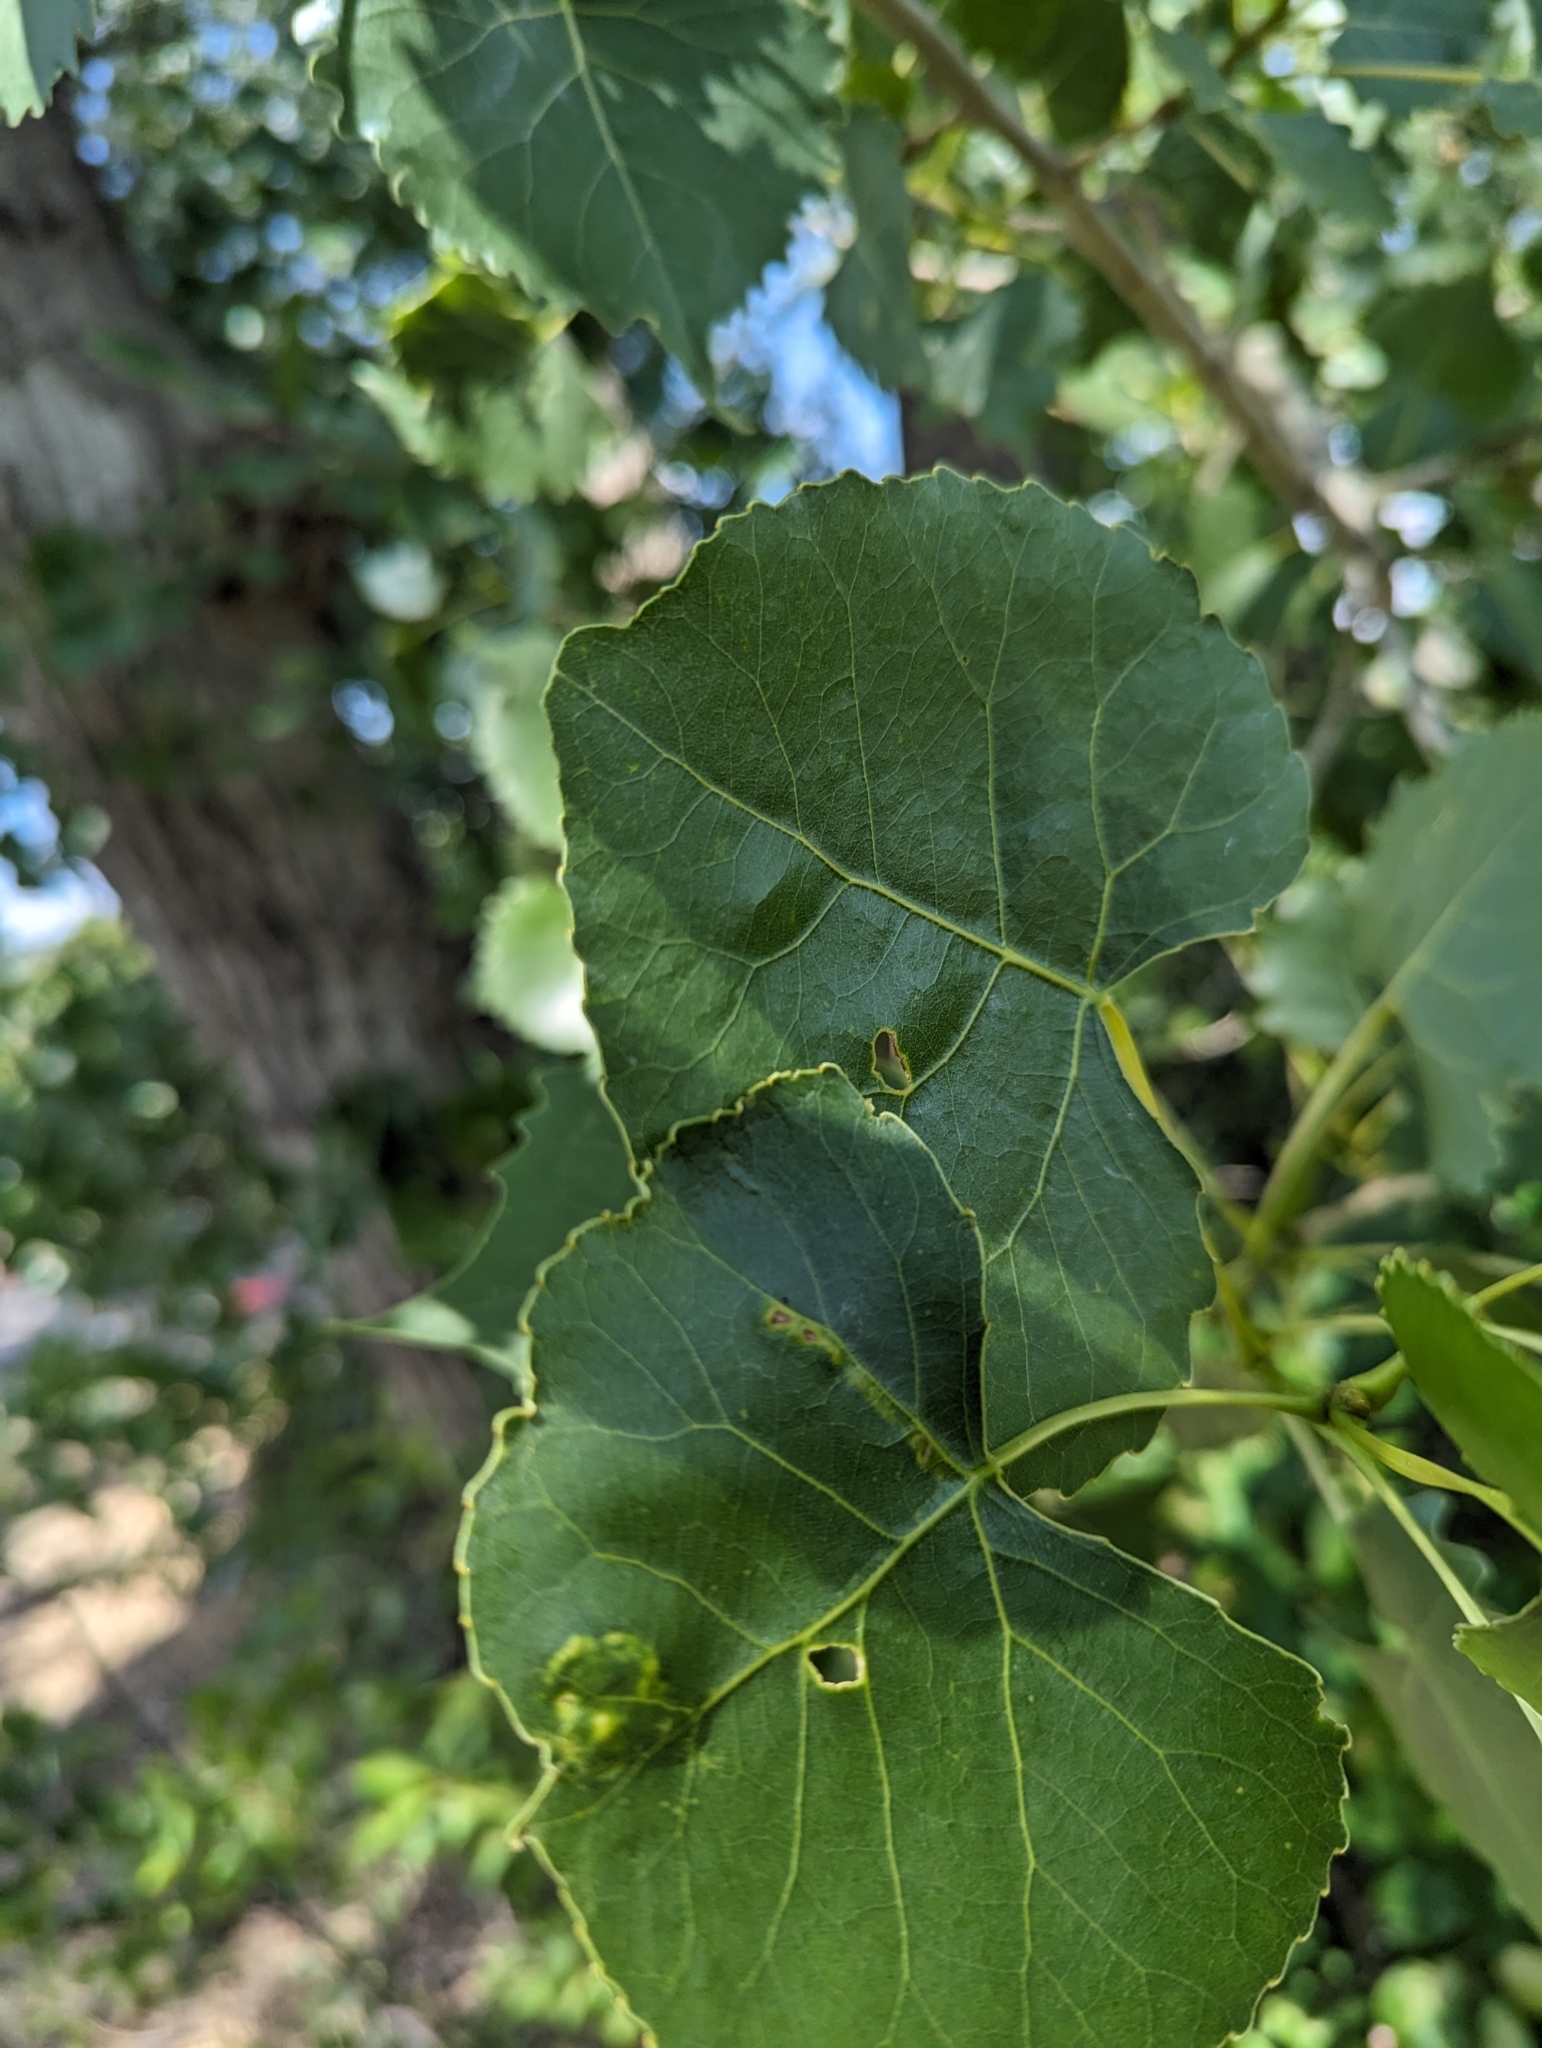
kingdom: Plantae
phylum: Tracheophyta
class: Magnoliopsida
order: Malpighiales
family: Salicaceae
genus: Populus
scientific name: Populus deltoides
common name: Eastern cottonwood
